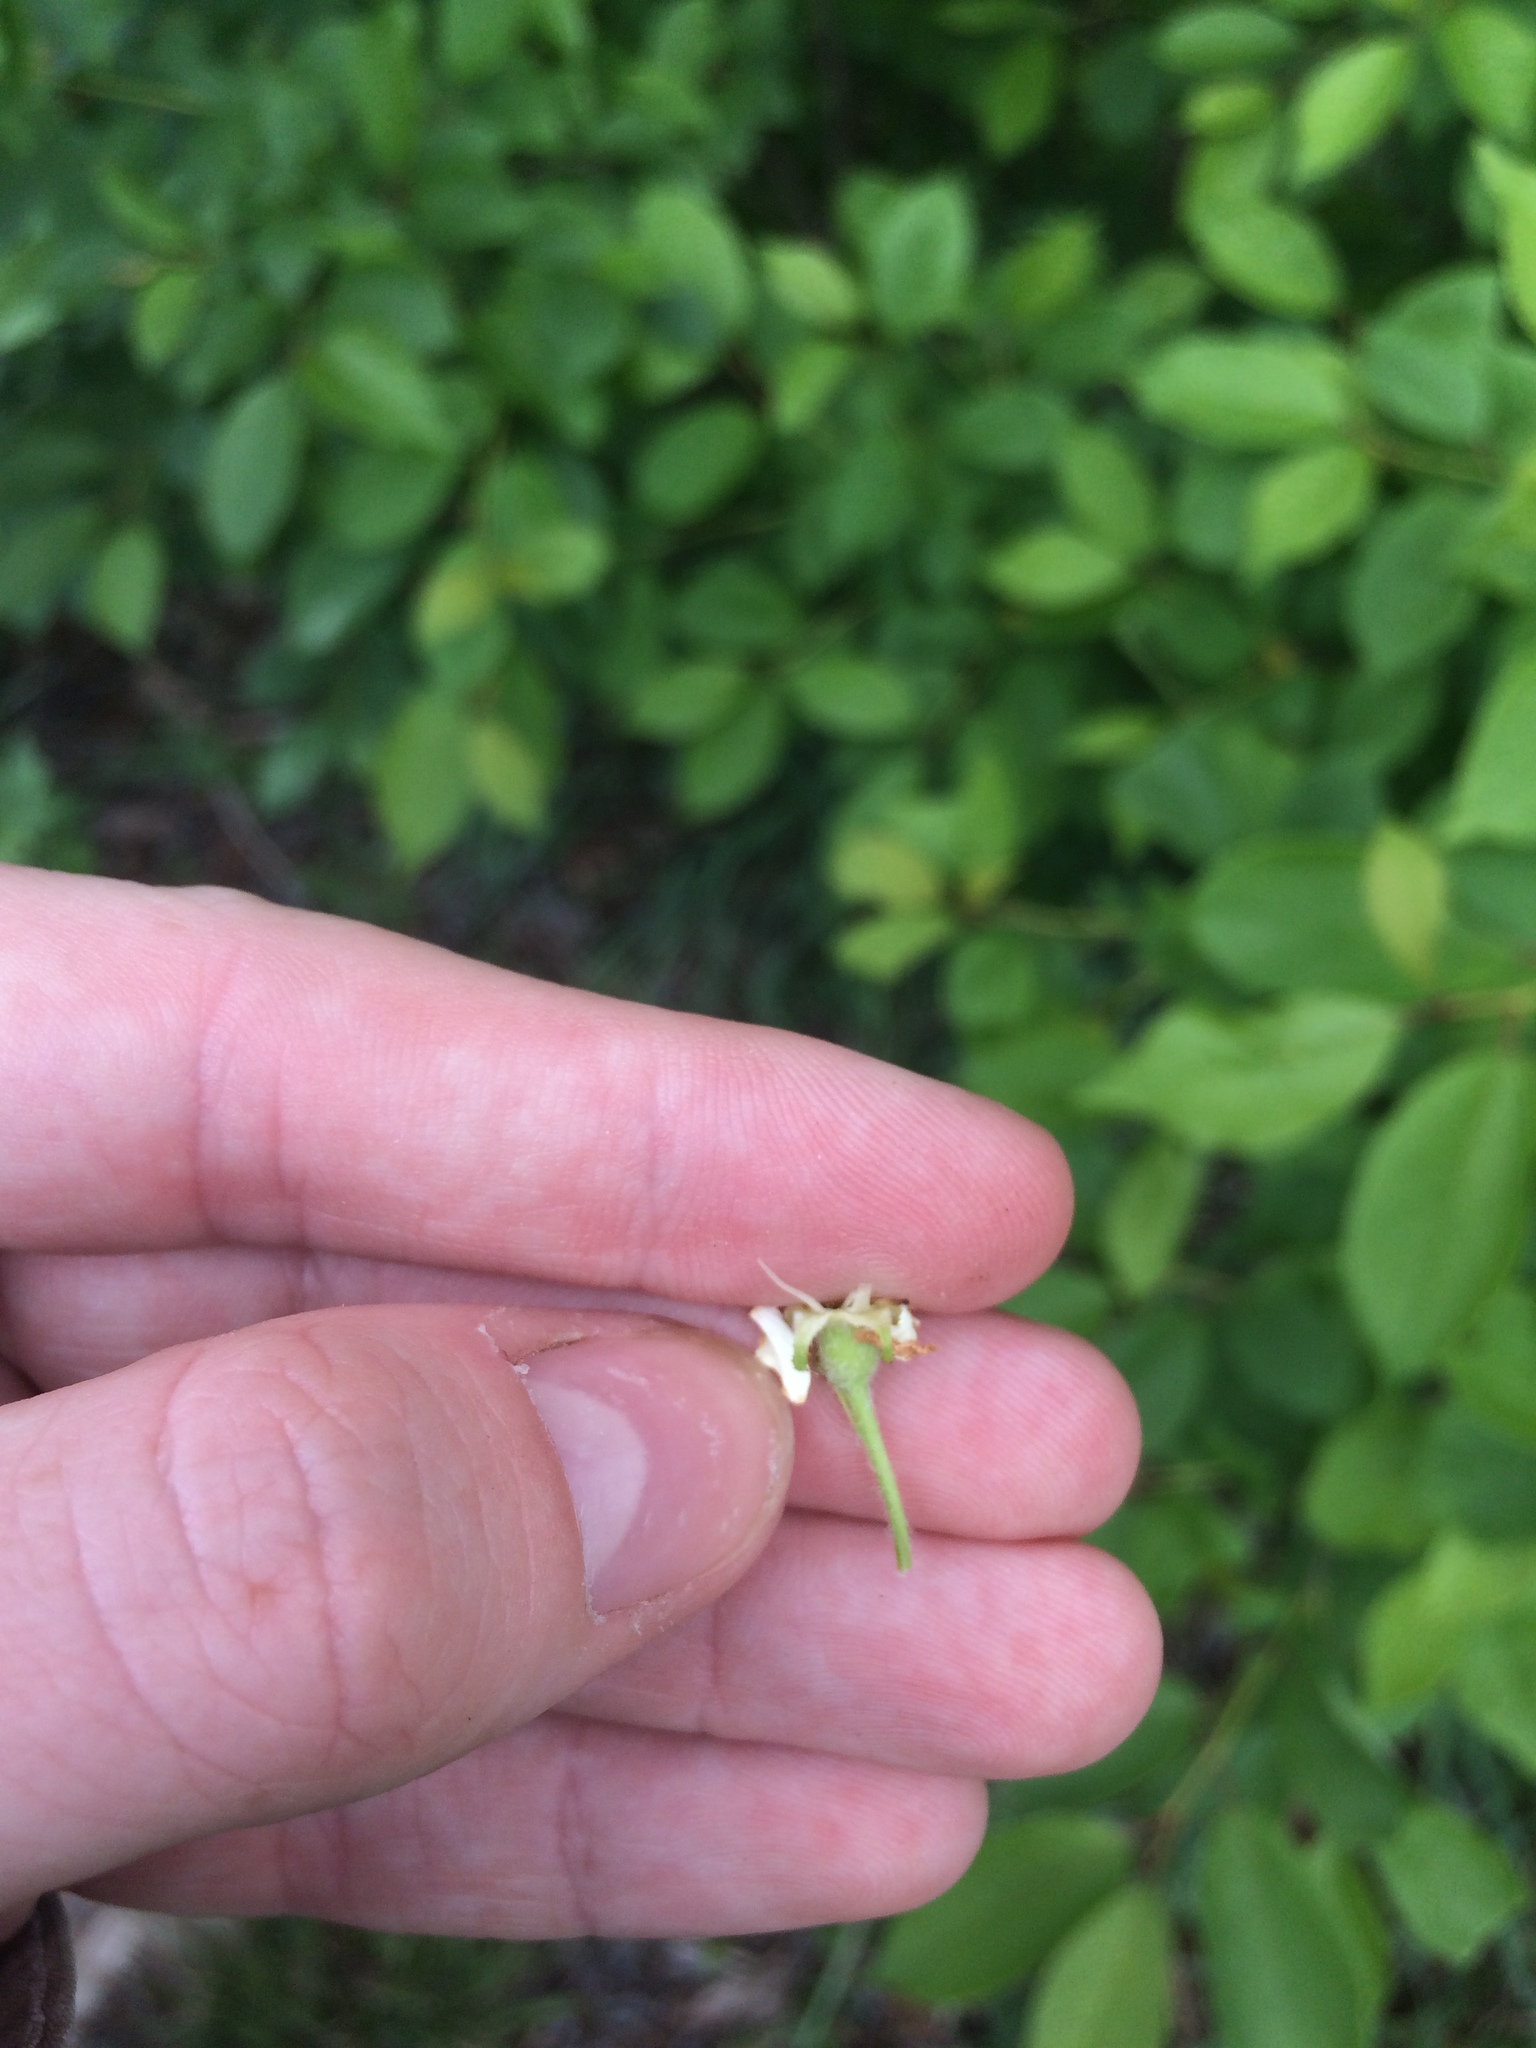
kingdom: Plantae
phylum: Tracheophyta
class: Magnoliopsida
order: Rosales
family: Rosaceae
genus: Crataegus
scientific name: Crataegus chrysocarpa
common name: Fire-berry hawthorn
